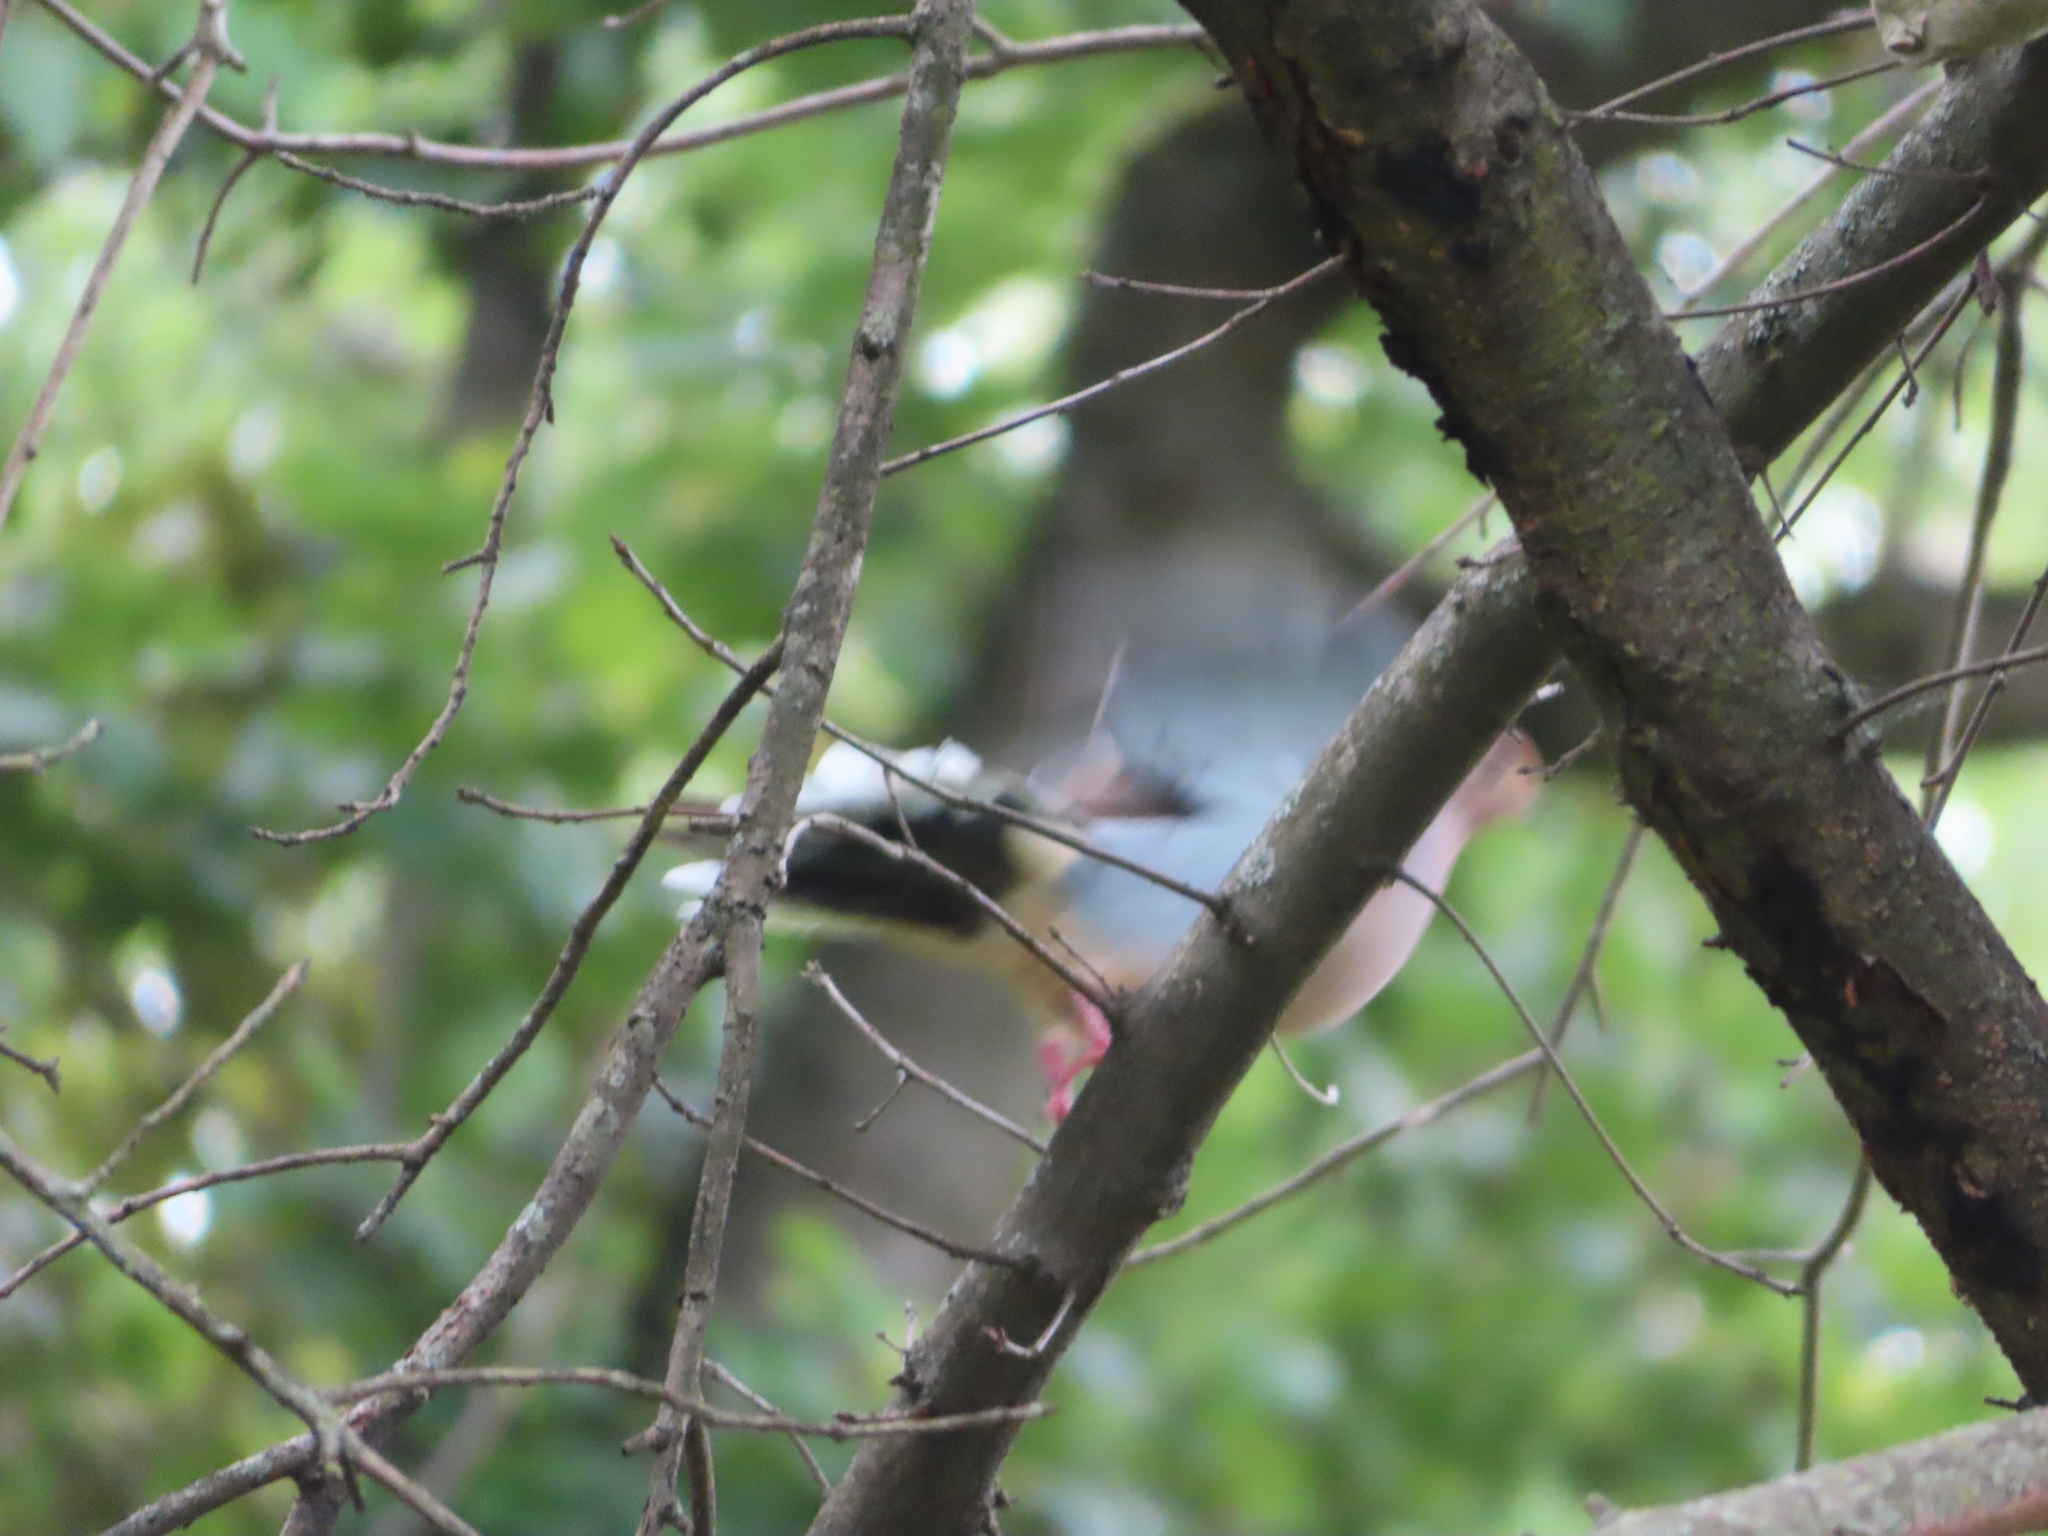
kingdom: Animalia
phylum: Chordata
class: Aves
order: Columbiformes
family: Columbidae
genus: Zenaida
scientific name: Zenaida macroura
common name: Mourning dove
